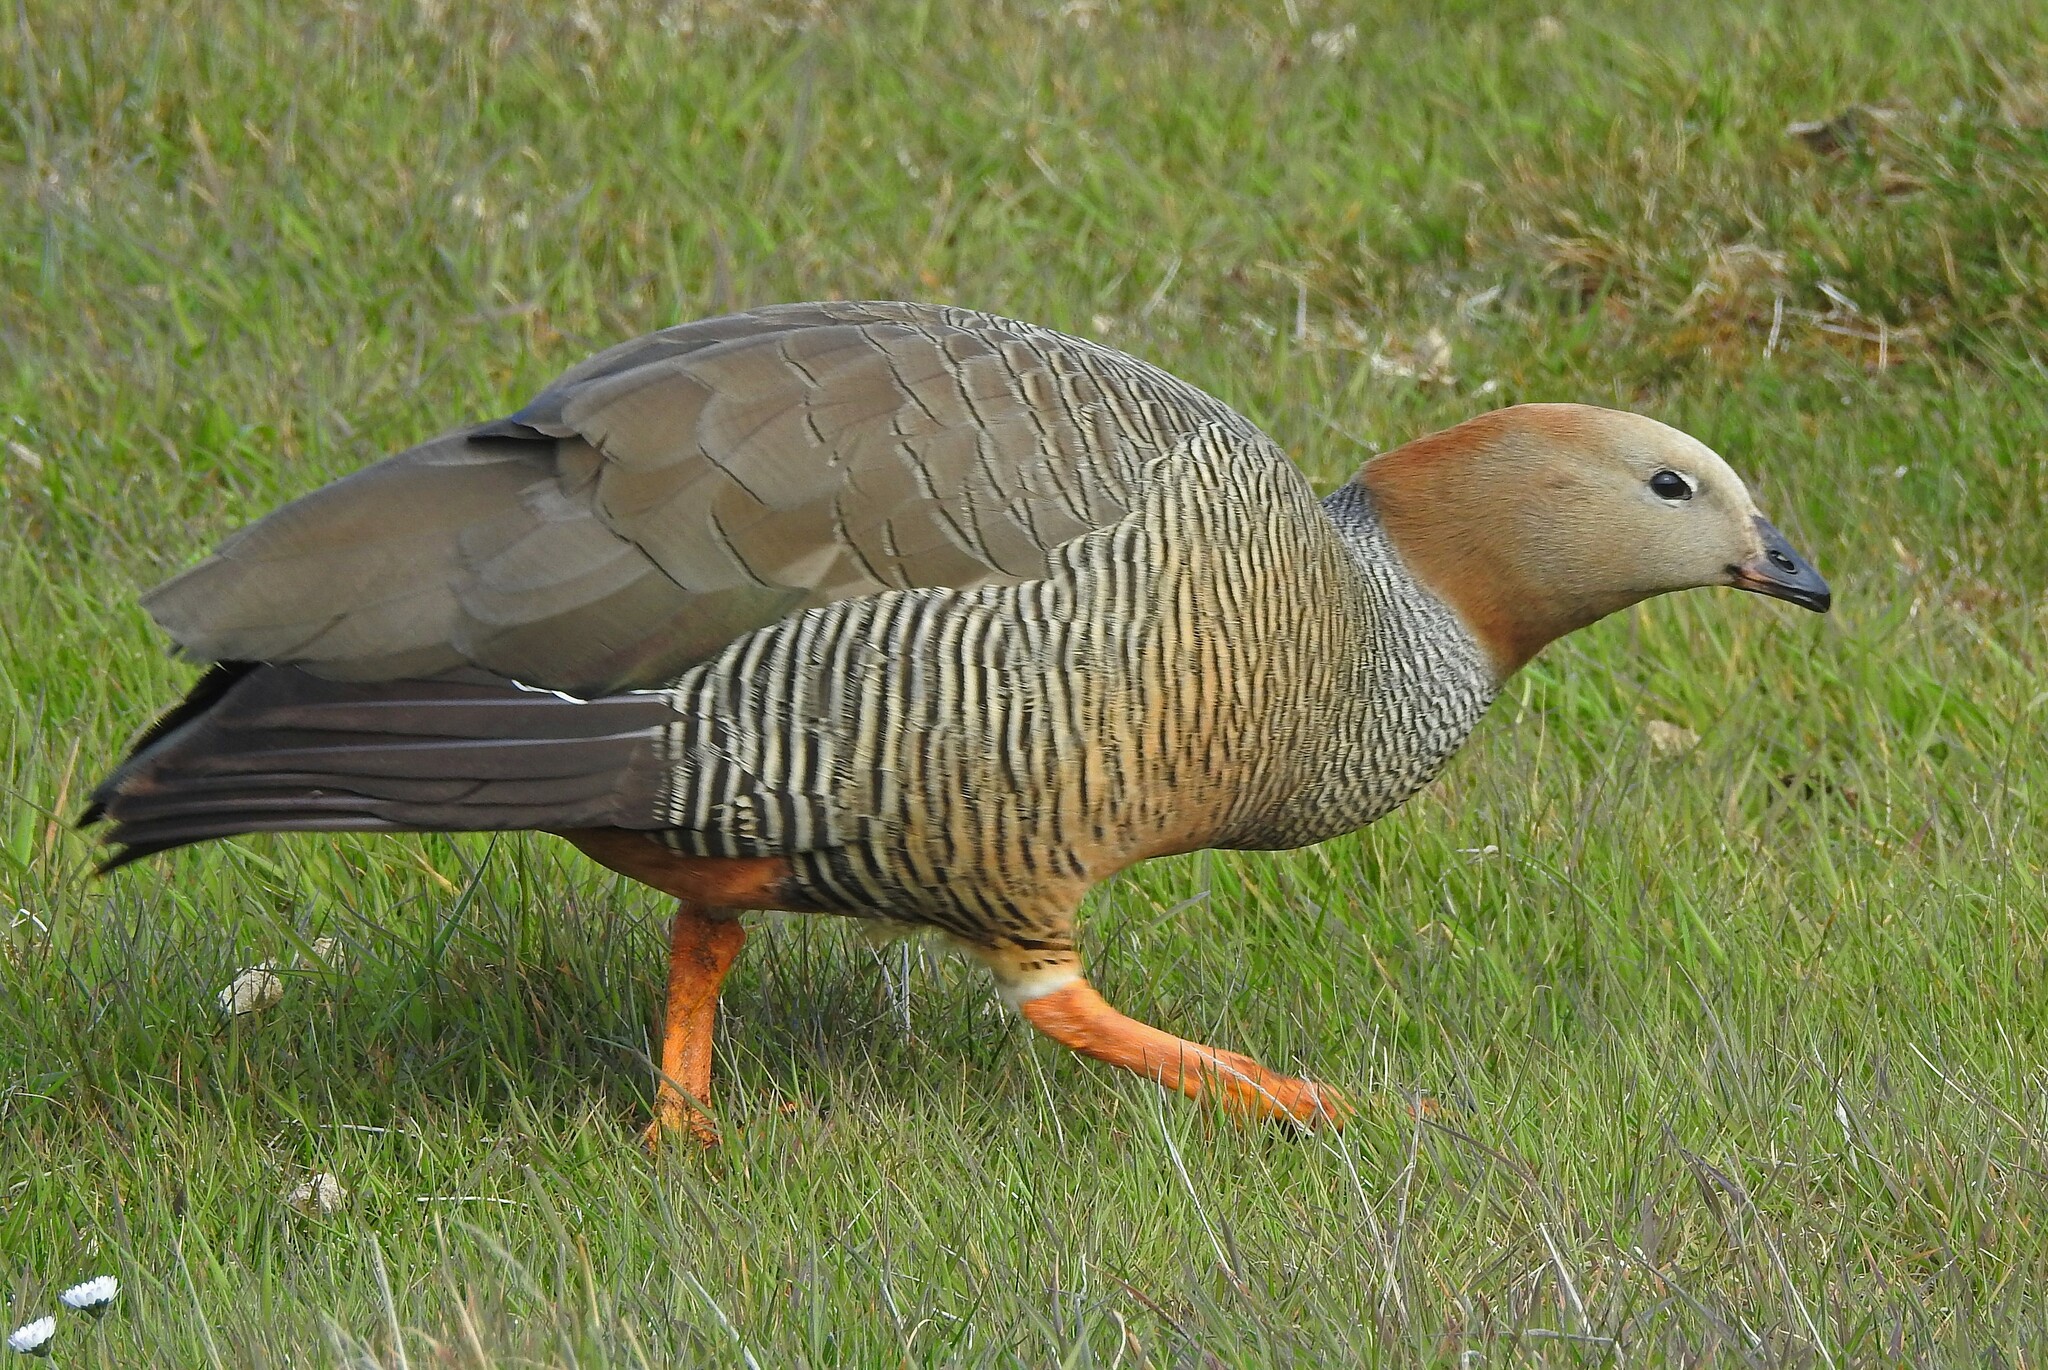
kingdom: Animalia
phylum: Chordata
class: Aves
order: Anseriformes
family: Anatidae
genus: Chloephaga
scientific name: Chloephaga rubidiceps
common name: Ruddy-headed goose
